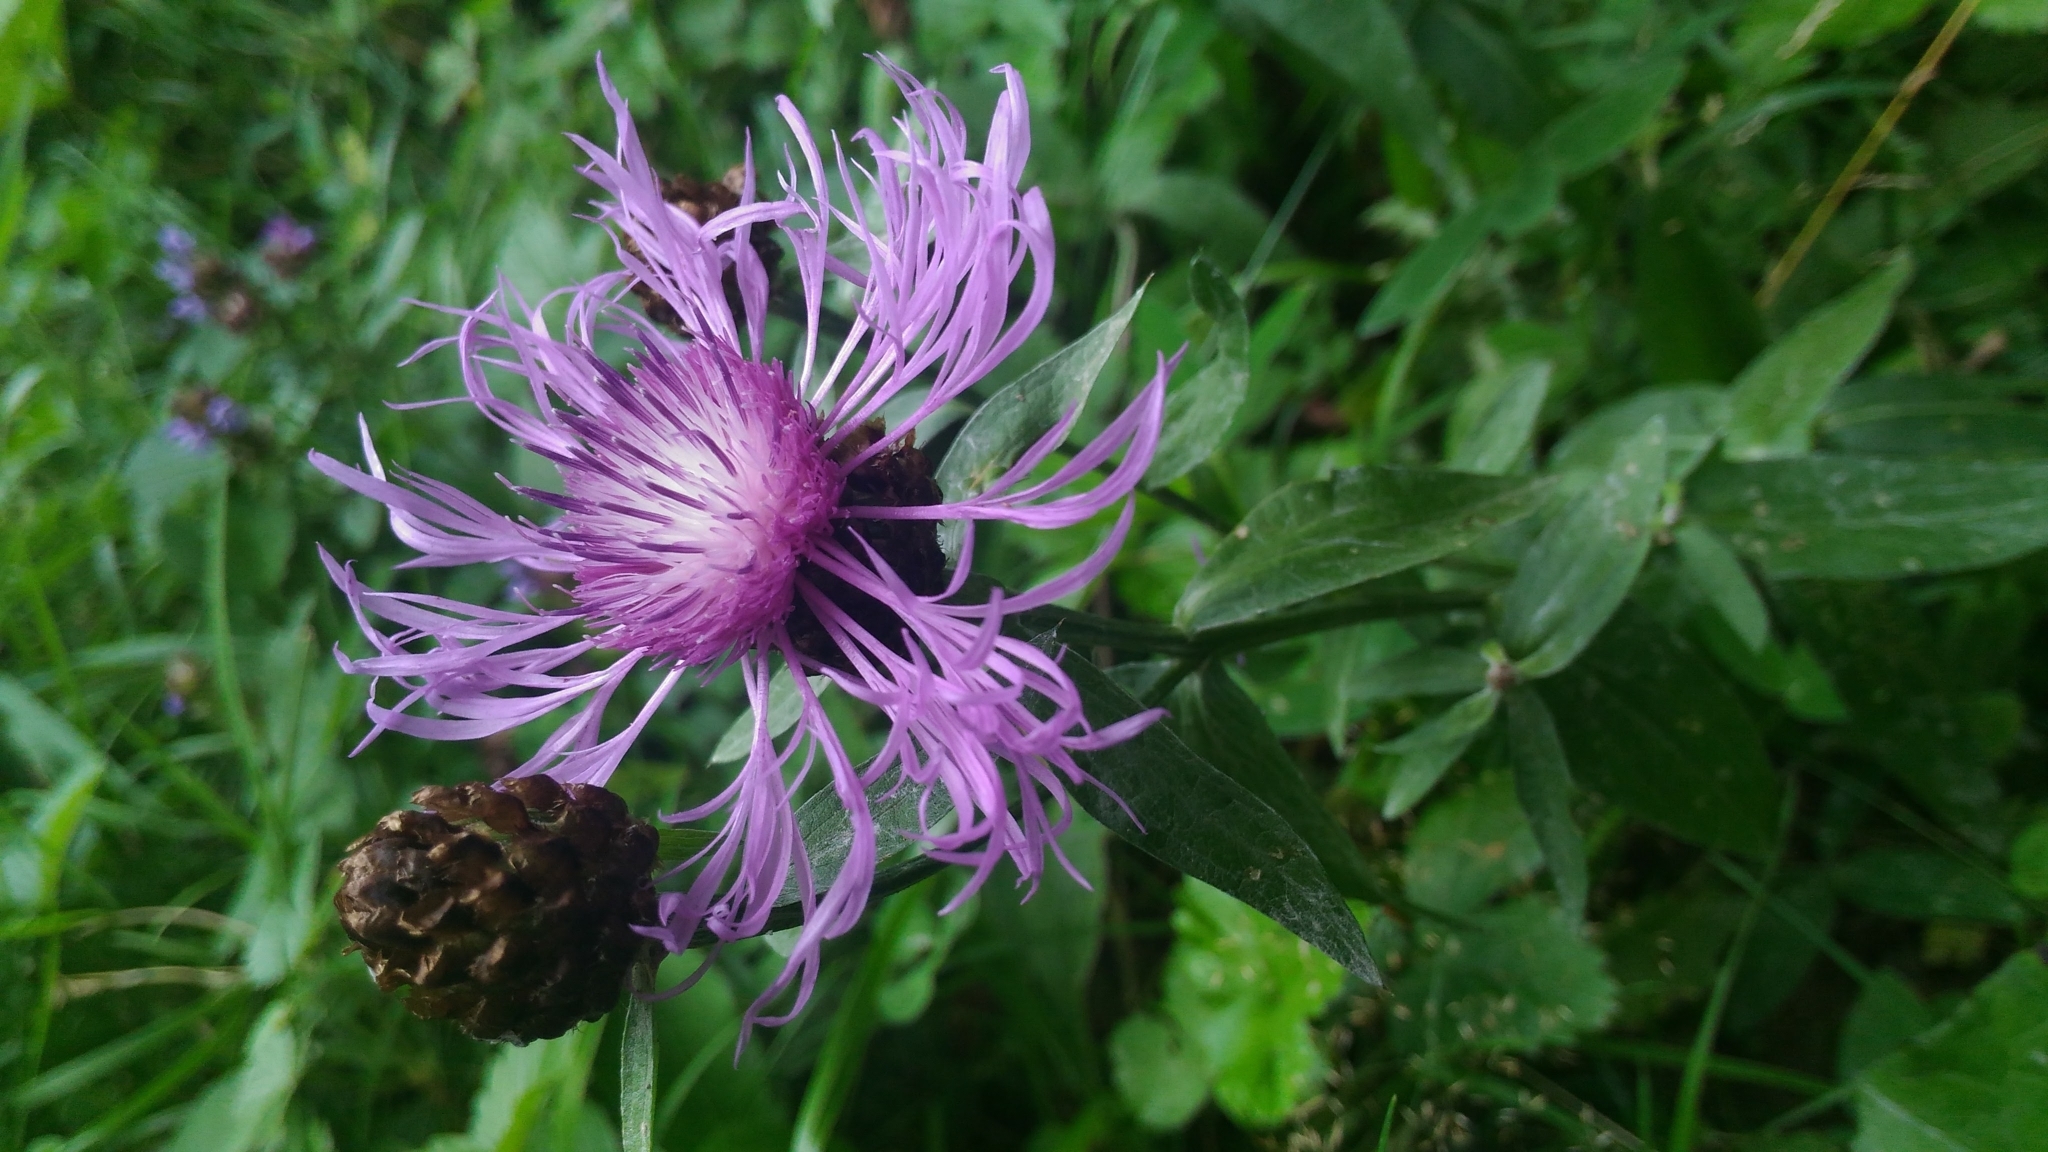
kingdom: Plantae
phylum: Tracheophyta
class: Magnoliopsida
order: Asterales
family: Asteraceae
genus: Centaurea
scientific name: Centaurea jacea
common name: Brown knapweed
